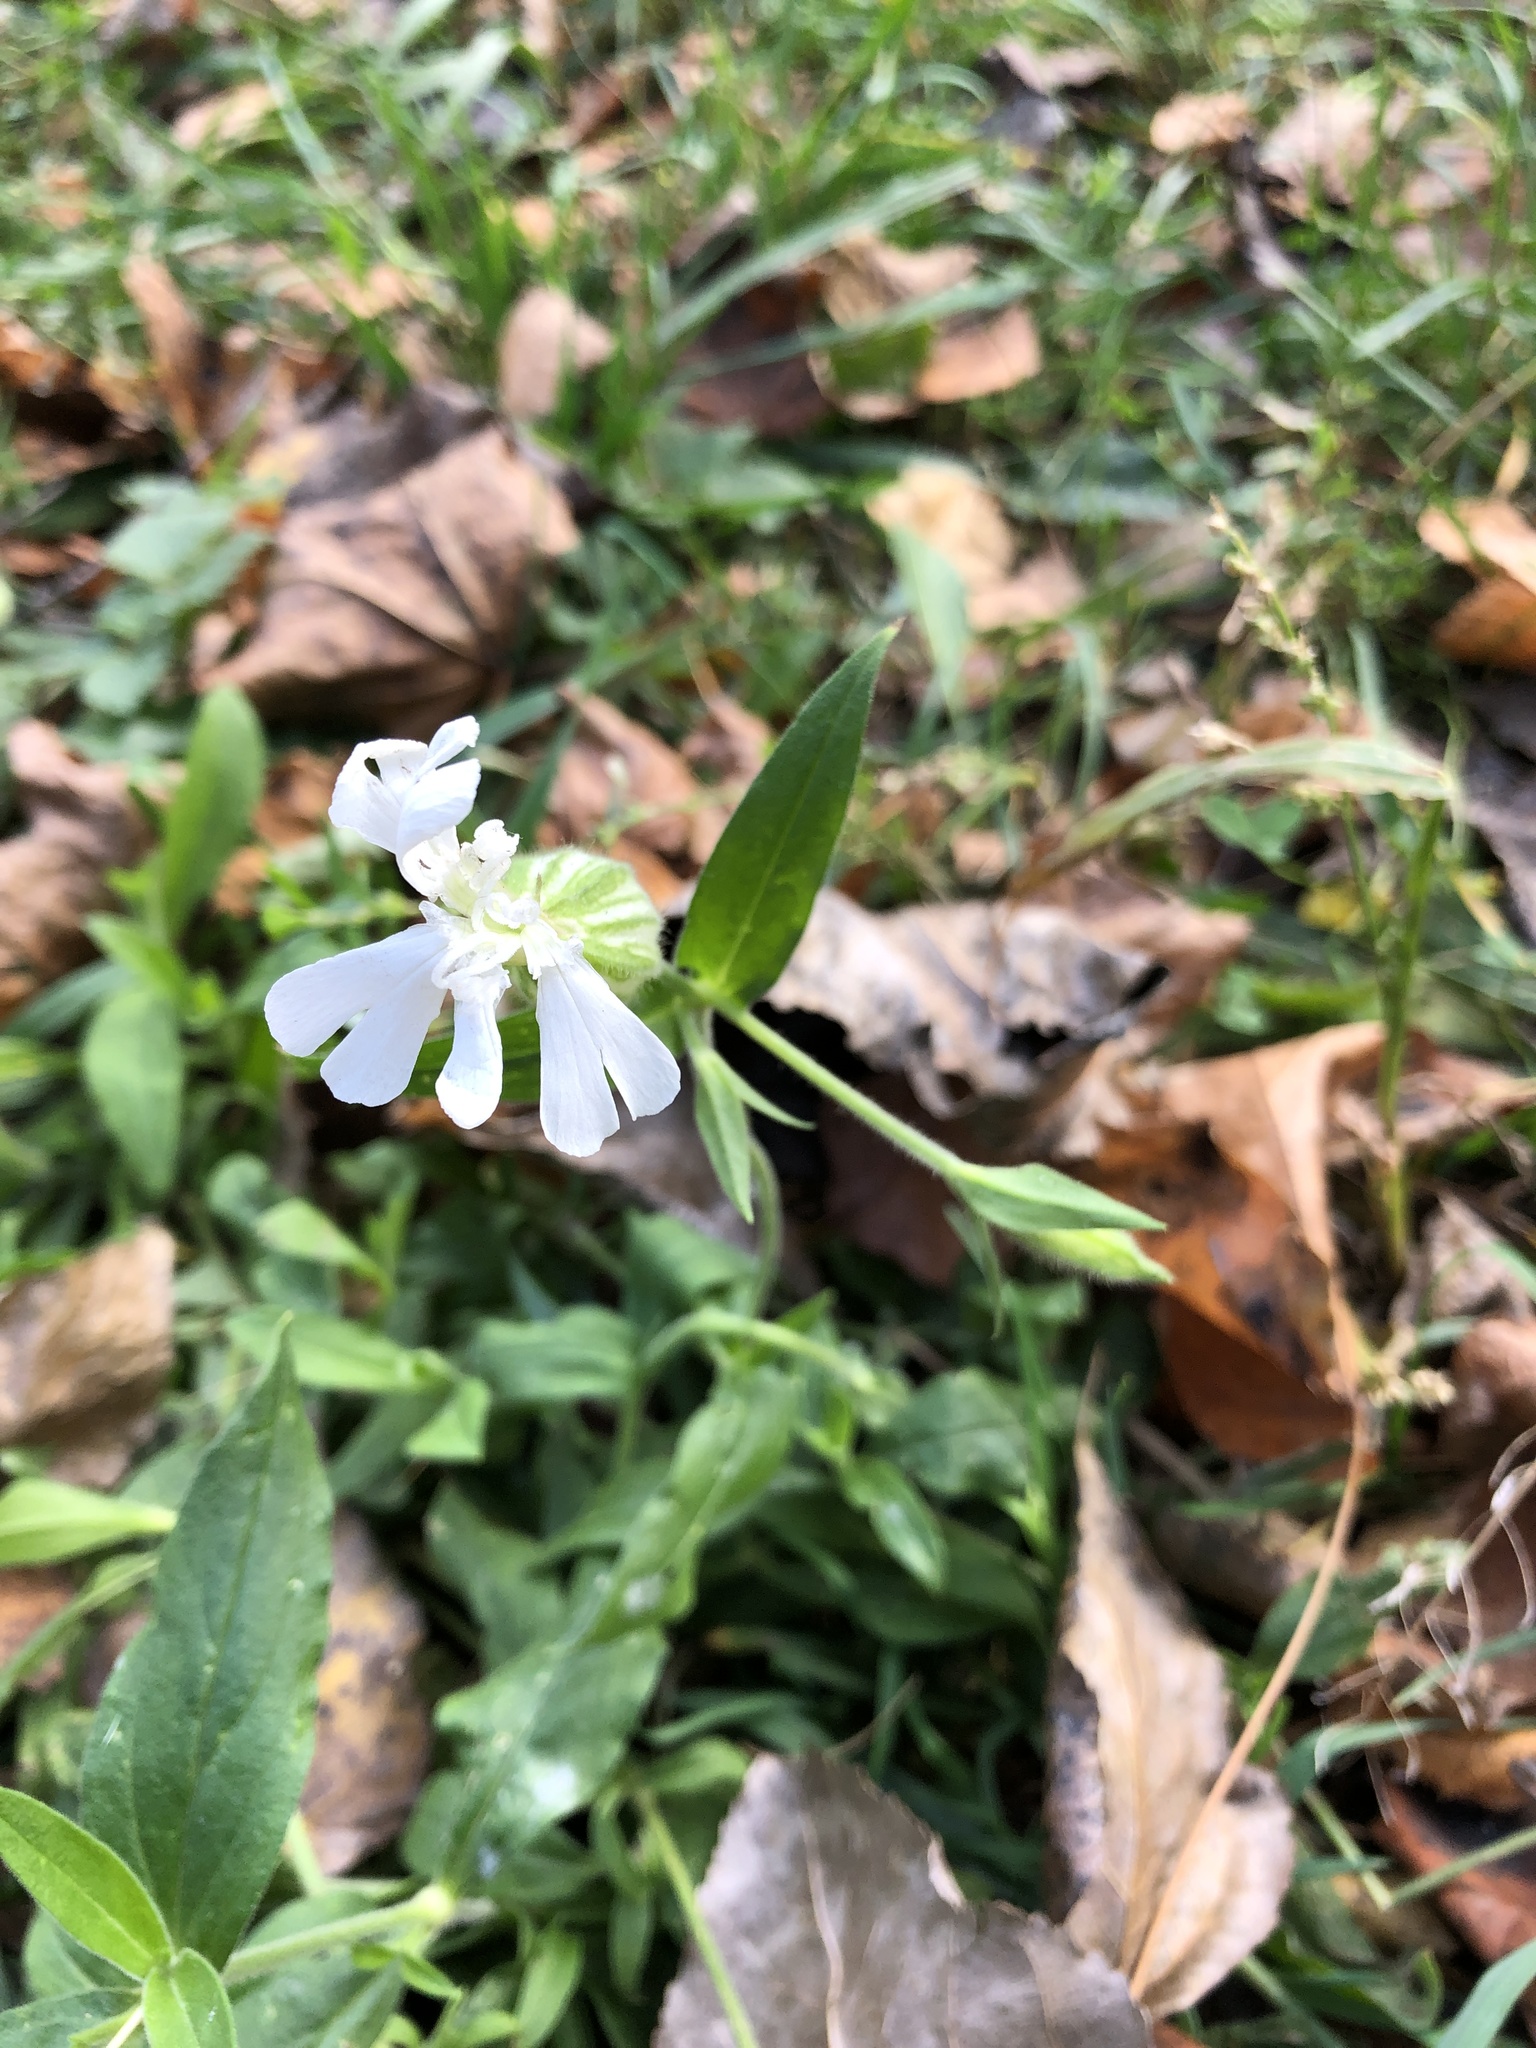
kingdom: Plantae
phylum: Tracheophyta
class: Magnoliopsida
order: Caryophyllales
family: Caryophyllaceae
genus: Silene
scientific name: Silene latifolia
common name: White campion
